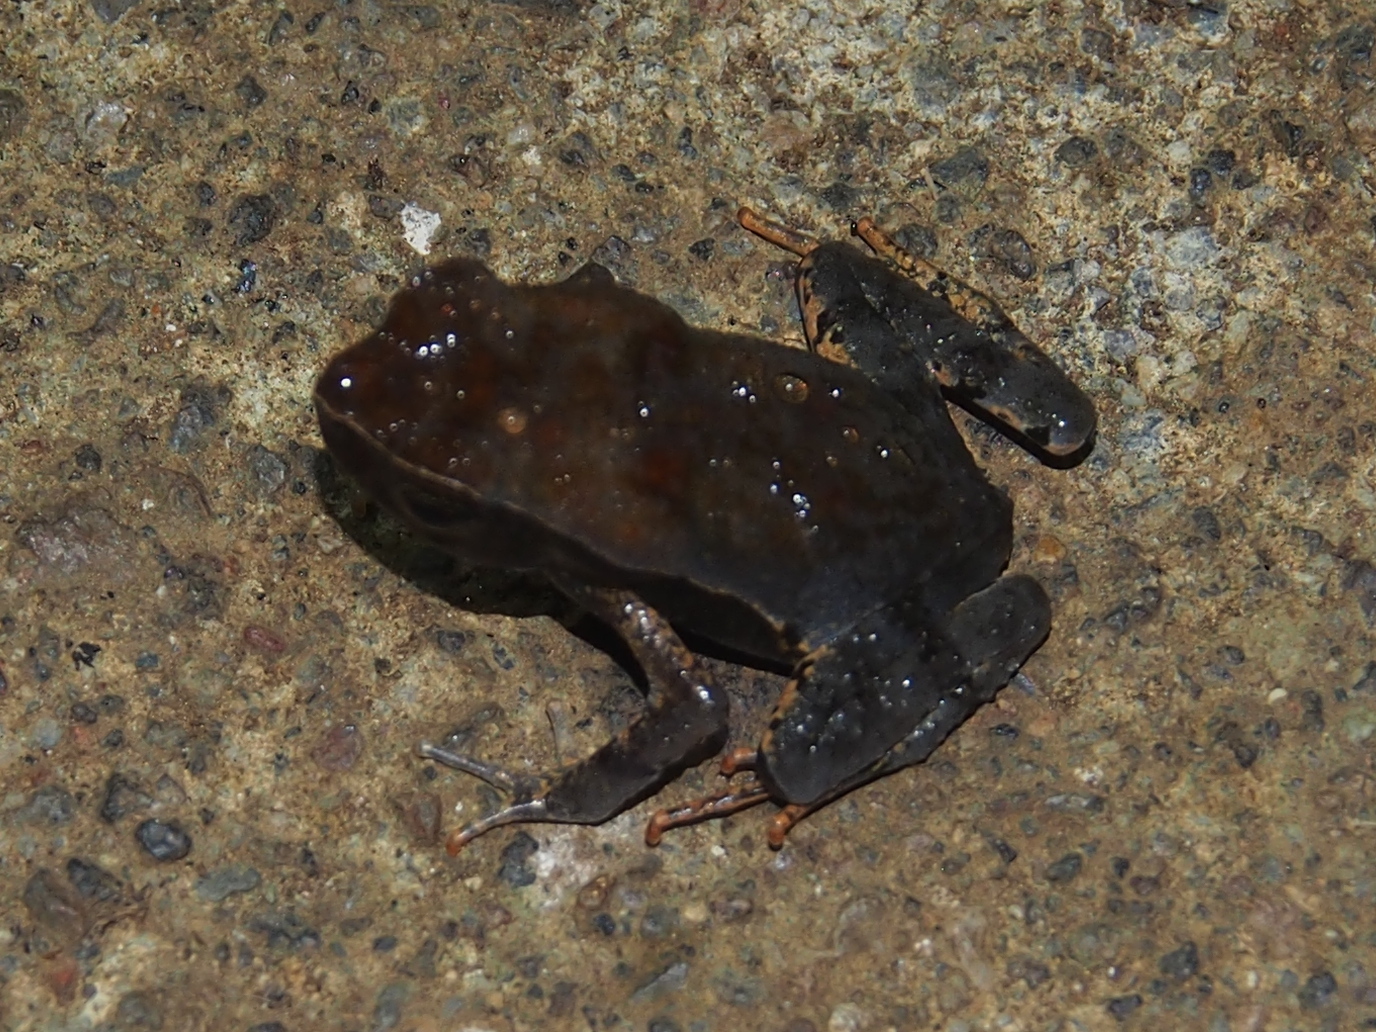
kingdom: Animalia
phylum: Chordata
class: Amphibia
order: Anura
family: Bufonidae
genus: Rhaebo
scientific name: Rhaebo haematiticus
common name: Truando toad
